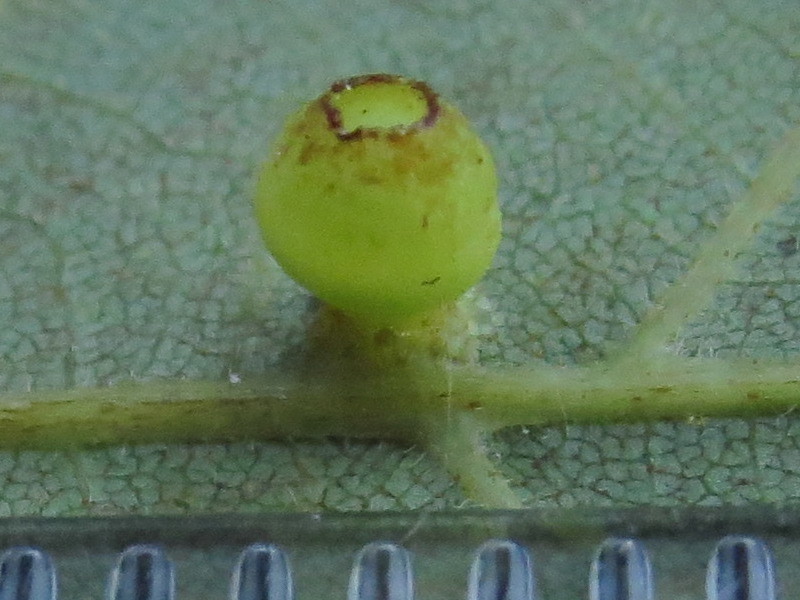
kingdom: Animalia
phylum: Arthropoda
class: Insecta
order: Diptera
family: Cecidomyiidae
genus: Caryomyia
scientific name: Caryomyia flaticrustum
